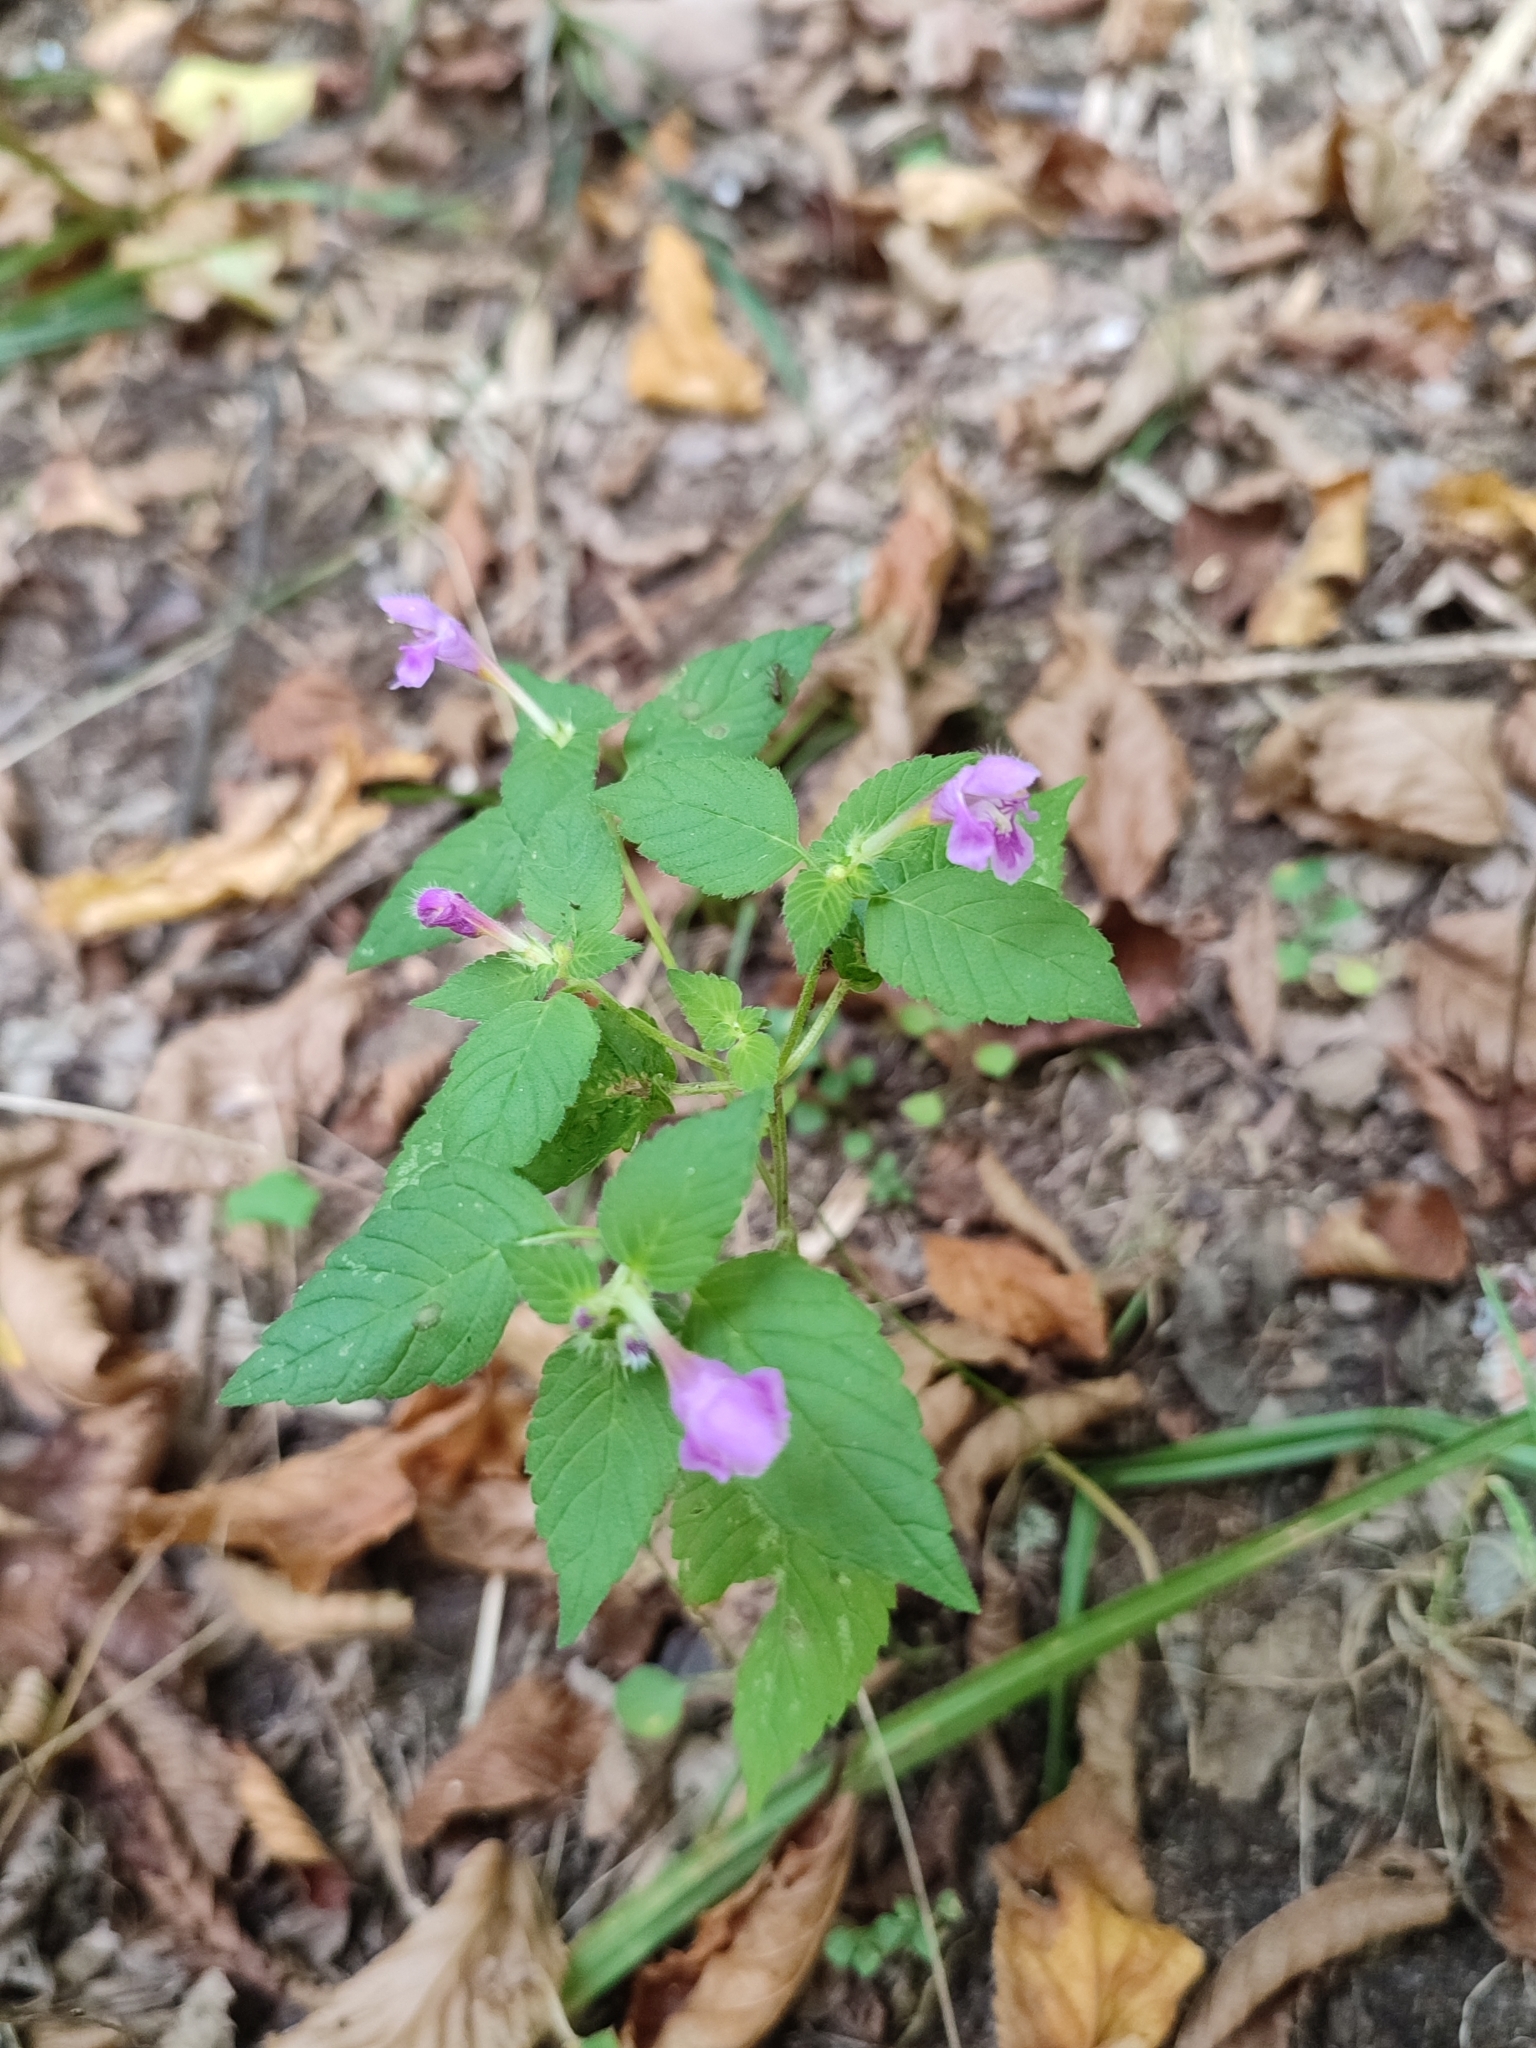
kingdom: Plantae
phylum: Tracheophyta
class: Magnoliopsida
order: Lamiales
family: Lamiaceae
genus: Galeopsis
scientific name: Galeopsis pubescens
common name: Downy hemp-nettle
